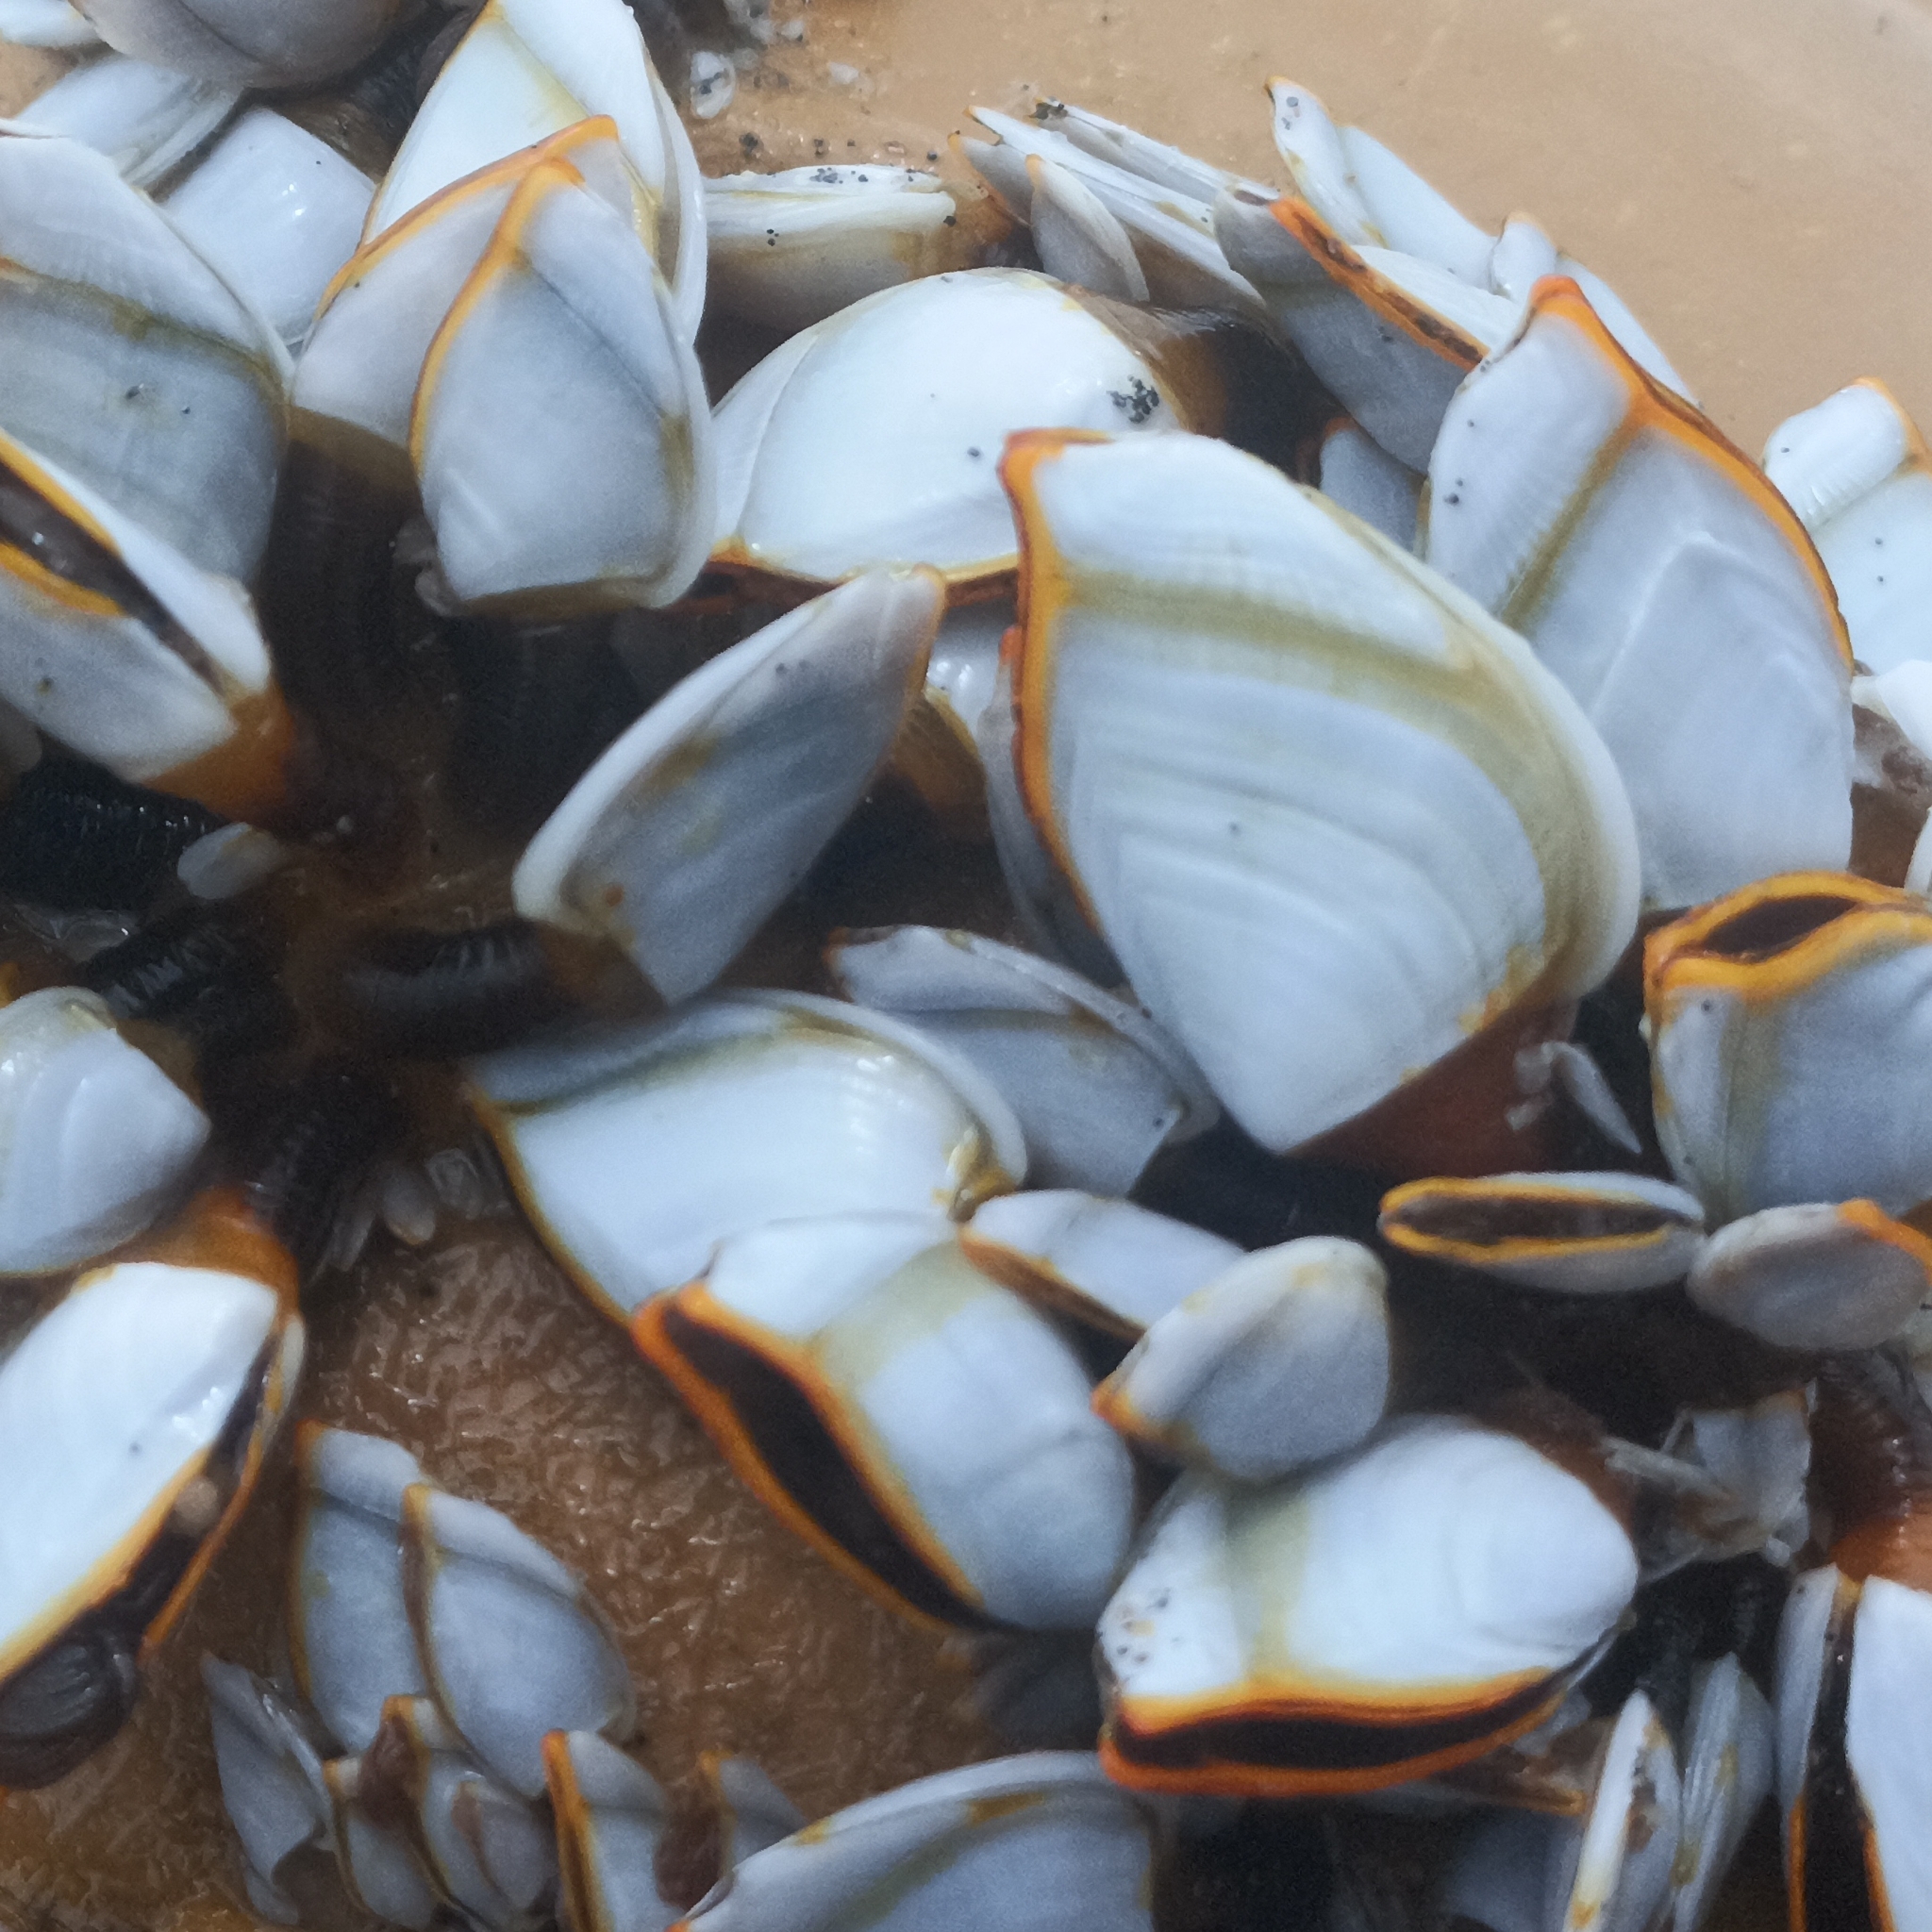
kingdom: Animalia
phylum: Arthropoda
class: Maxillopoda
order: Pedunculata
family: Lepadidae
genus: Lepas
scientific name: Lepas anserifera
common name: Goose barnacle
